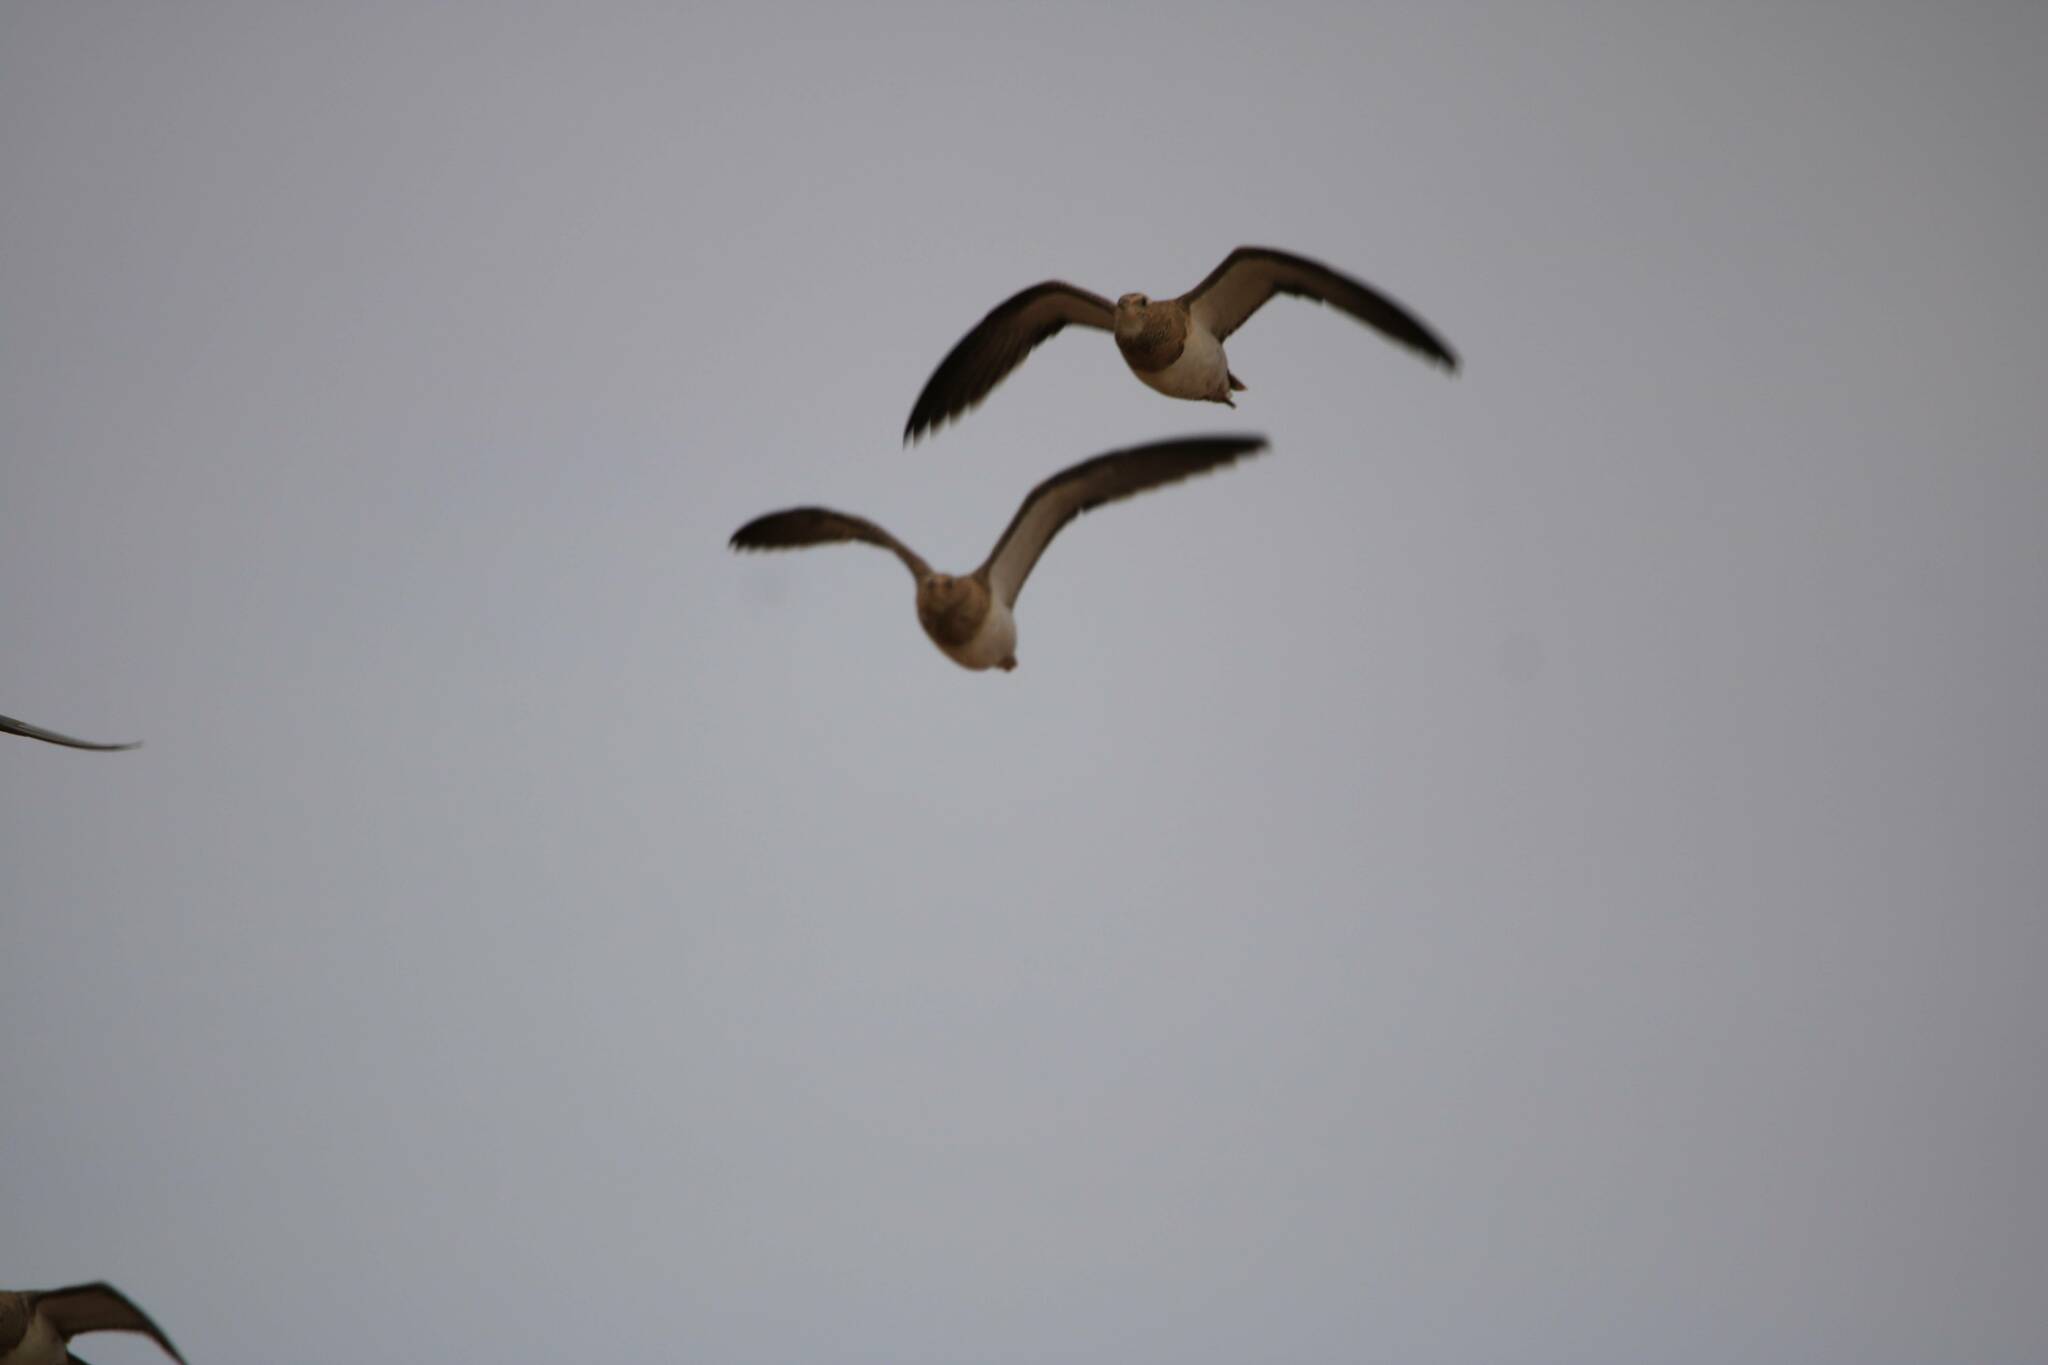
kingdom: Animalia
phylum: Chordata
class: Aves
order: Pteroclidiformes
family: Pteroclididae
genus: Pterocles
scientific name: Pterocles alchata
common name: Pin-tailed sandgrouse
